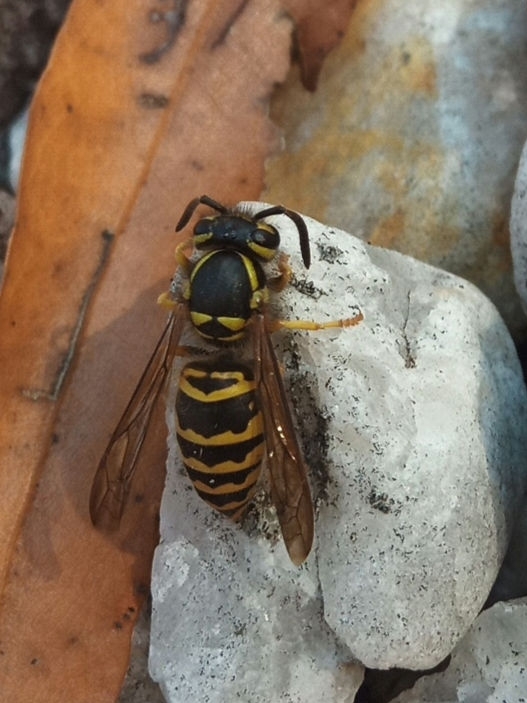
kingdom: Animalia
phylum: Arthropoda
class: Insecta
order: Hymenoptera
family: Vespidae
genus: Vespula
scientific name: Vespula maculifrons
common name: Eastern yellowjacket
